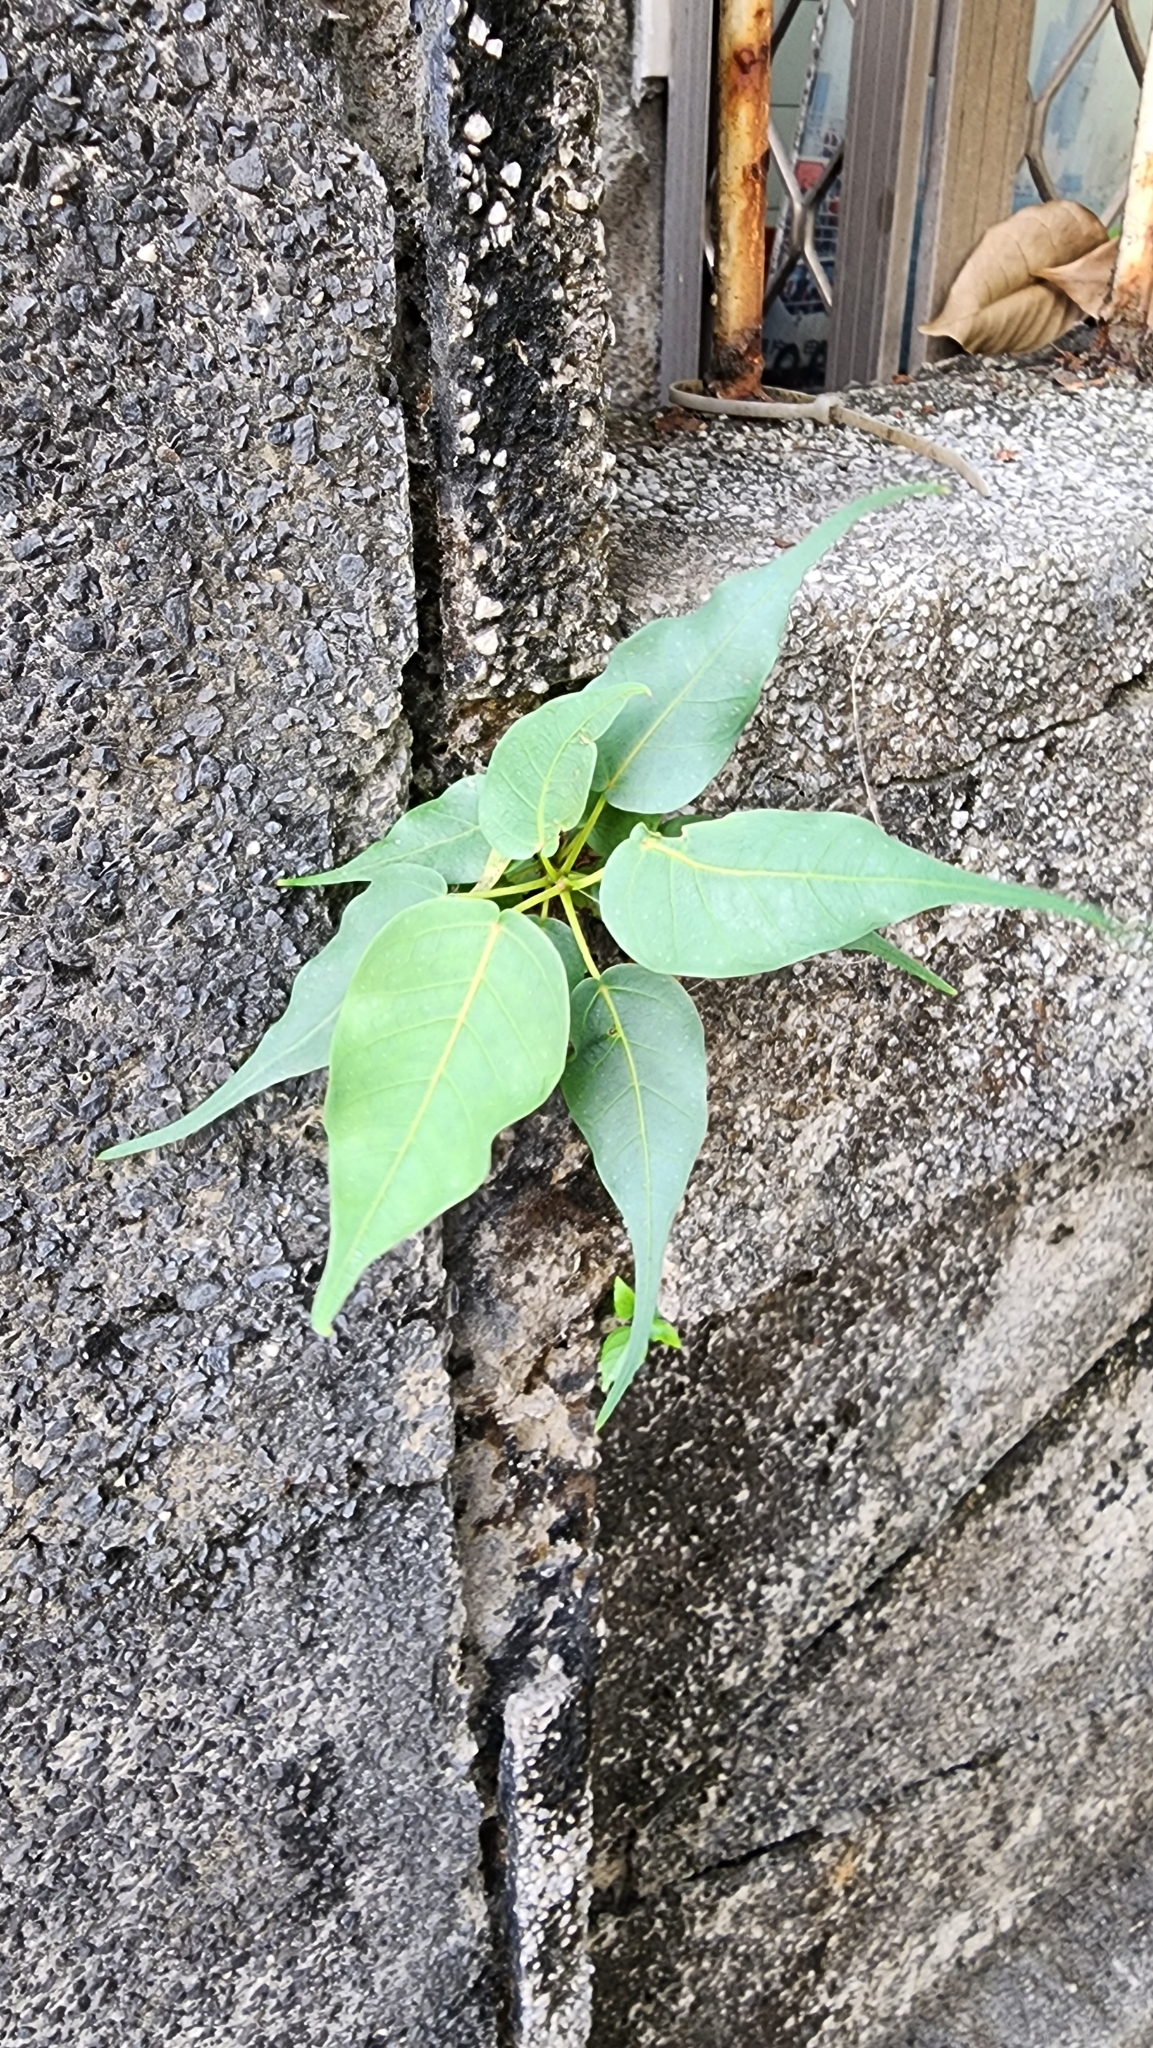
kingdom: Plantae
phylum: Tracheophyta
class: Magnoliopsida
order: Rosales
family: Moraceae
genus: Ficus
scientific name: Ficus religiosa
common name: Bodhi tree
